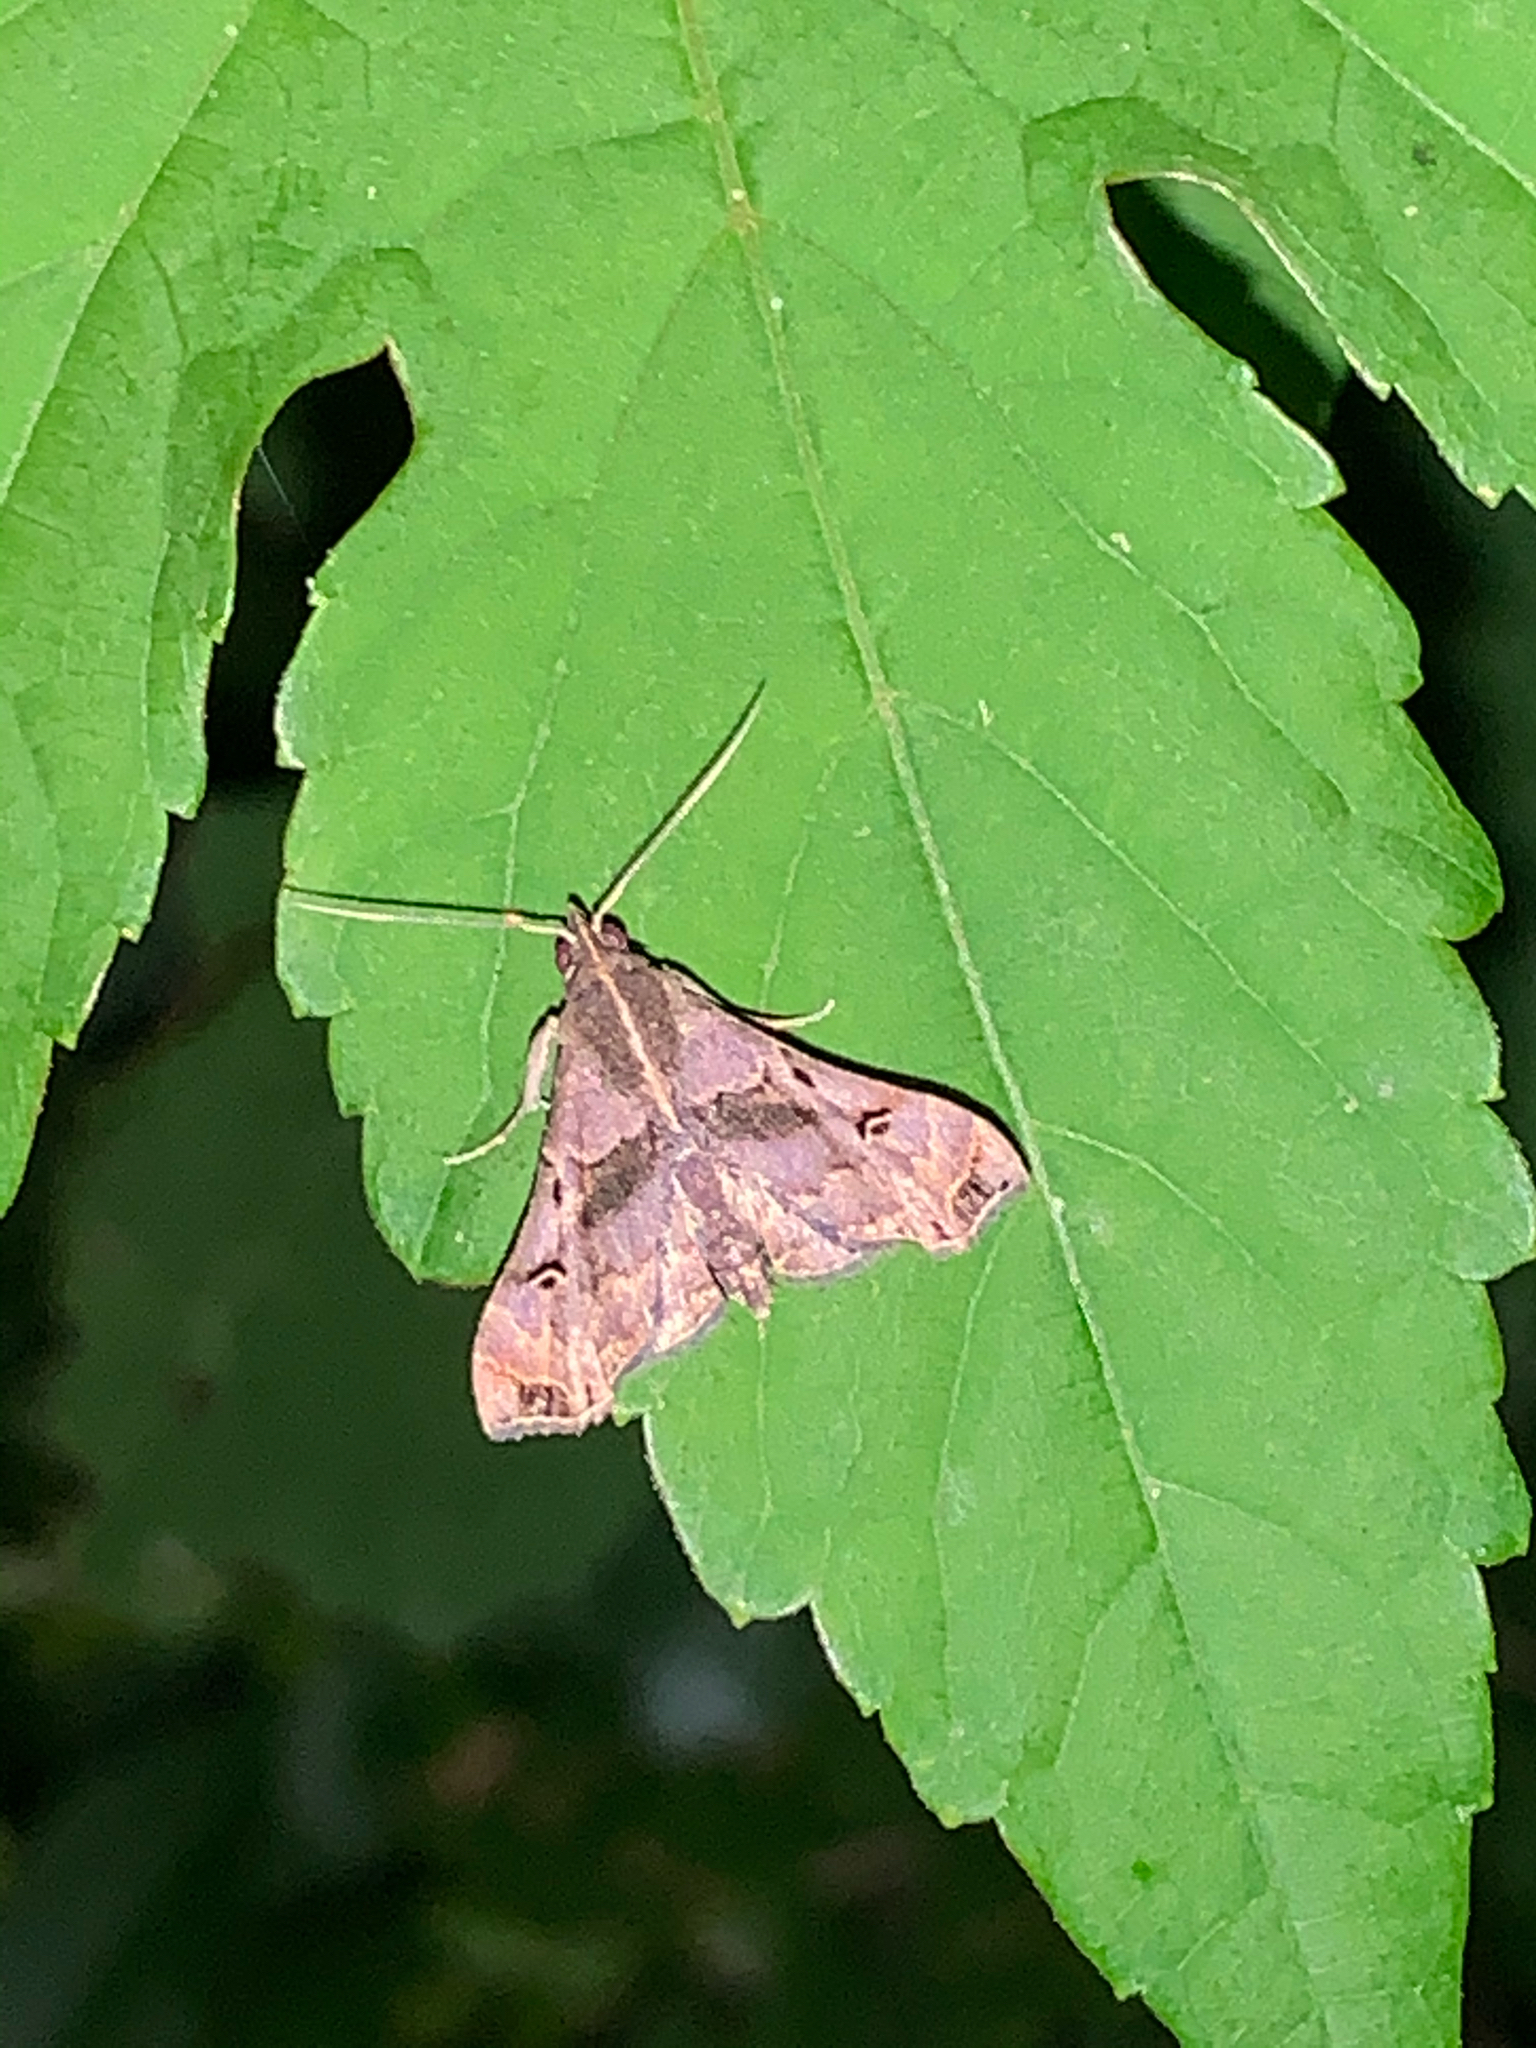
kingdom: Animalia
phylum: Arthropoda
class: Insecta
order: Lepidoptera
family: Erebidae
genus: Palthis
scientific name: Palthis asopialis
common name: Faint-spotted palthis moth
